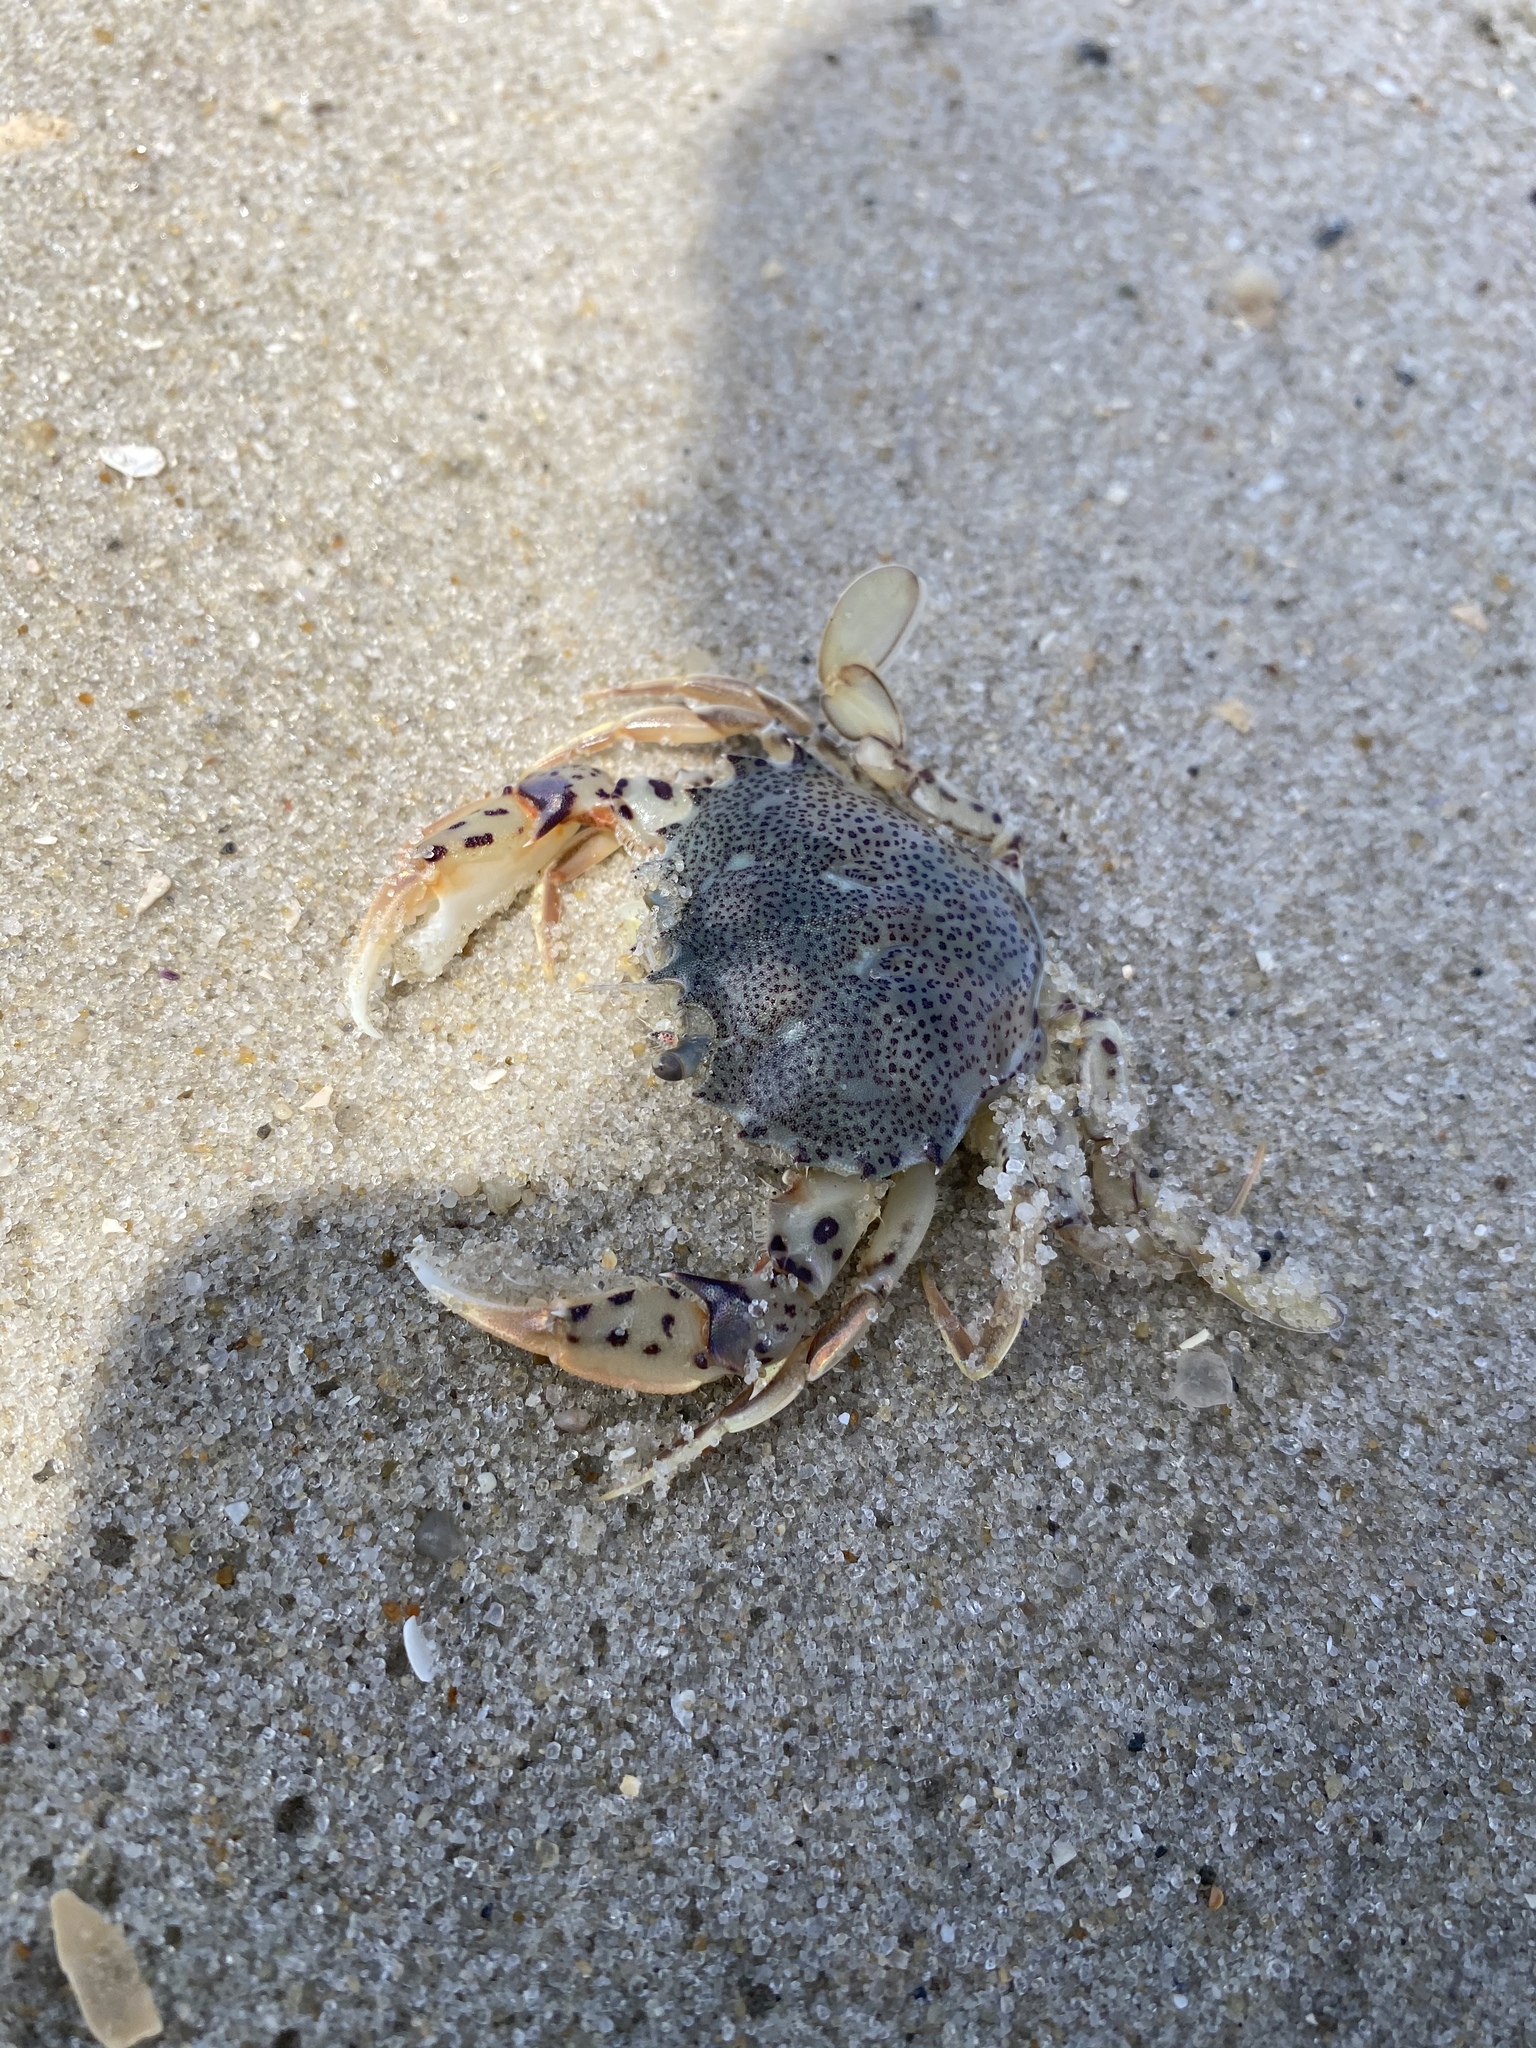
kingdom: Animalia
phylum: Arthropoda
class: Malacostraca
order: Decapoda
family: Ovalipidae
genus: Ovalipes
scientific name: Ovalipes ocellatus
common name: Lady crab
